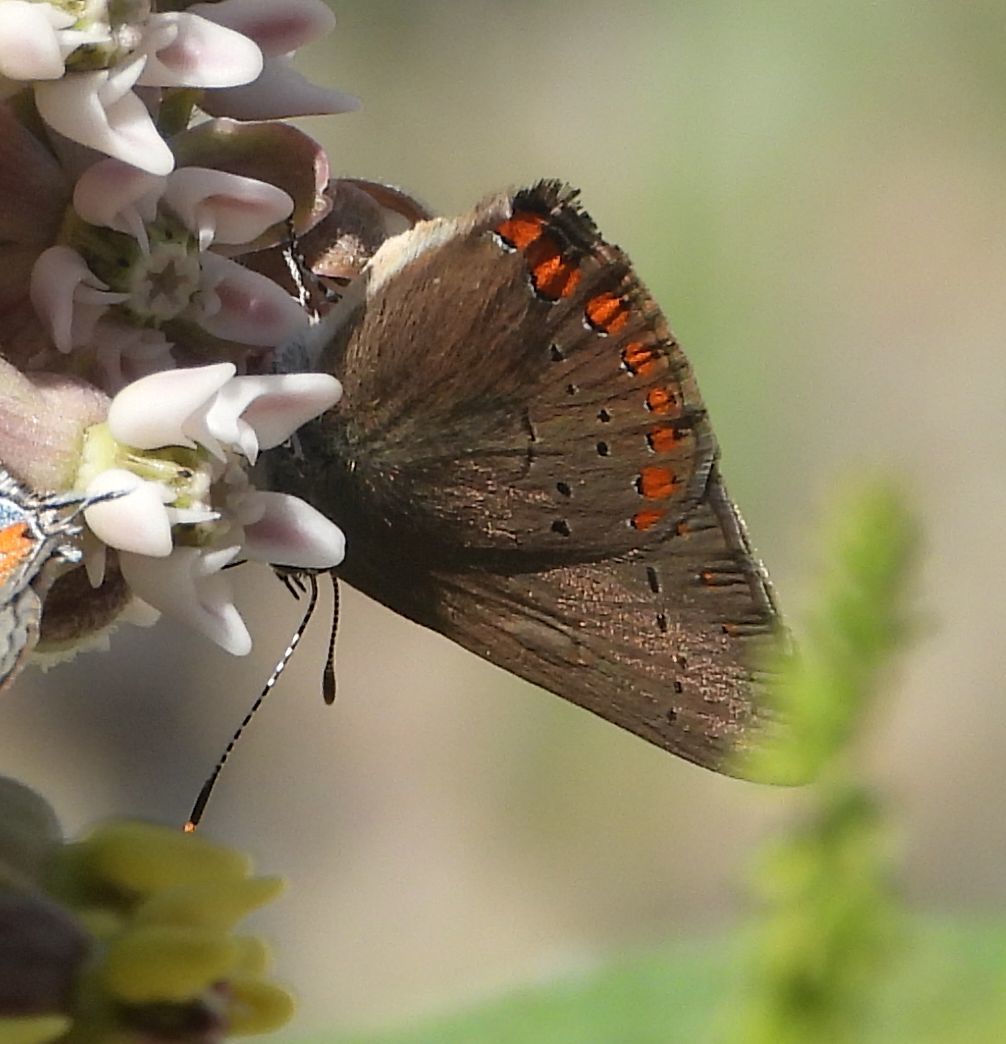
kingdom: Animalia
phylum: Arthropoda
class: Insecta
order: Lepidoptera
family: Lycaenidae
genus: Harkenclenus
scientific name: Harkenclenus titus
